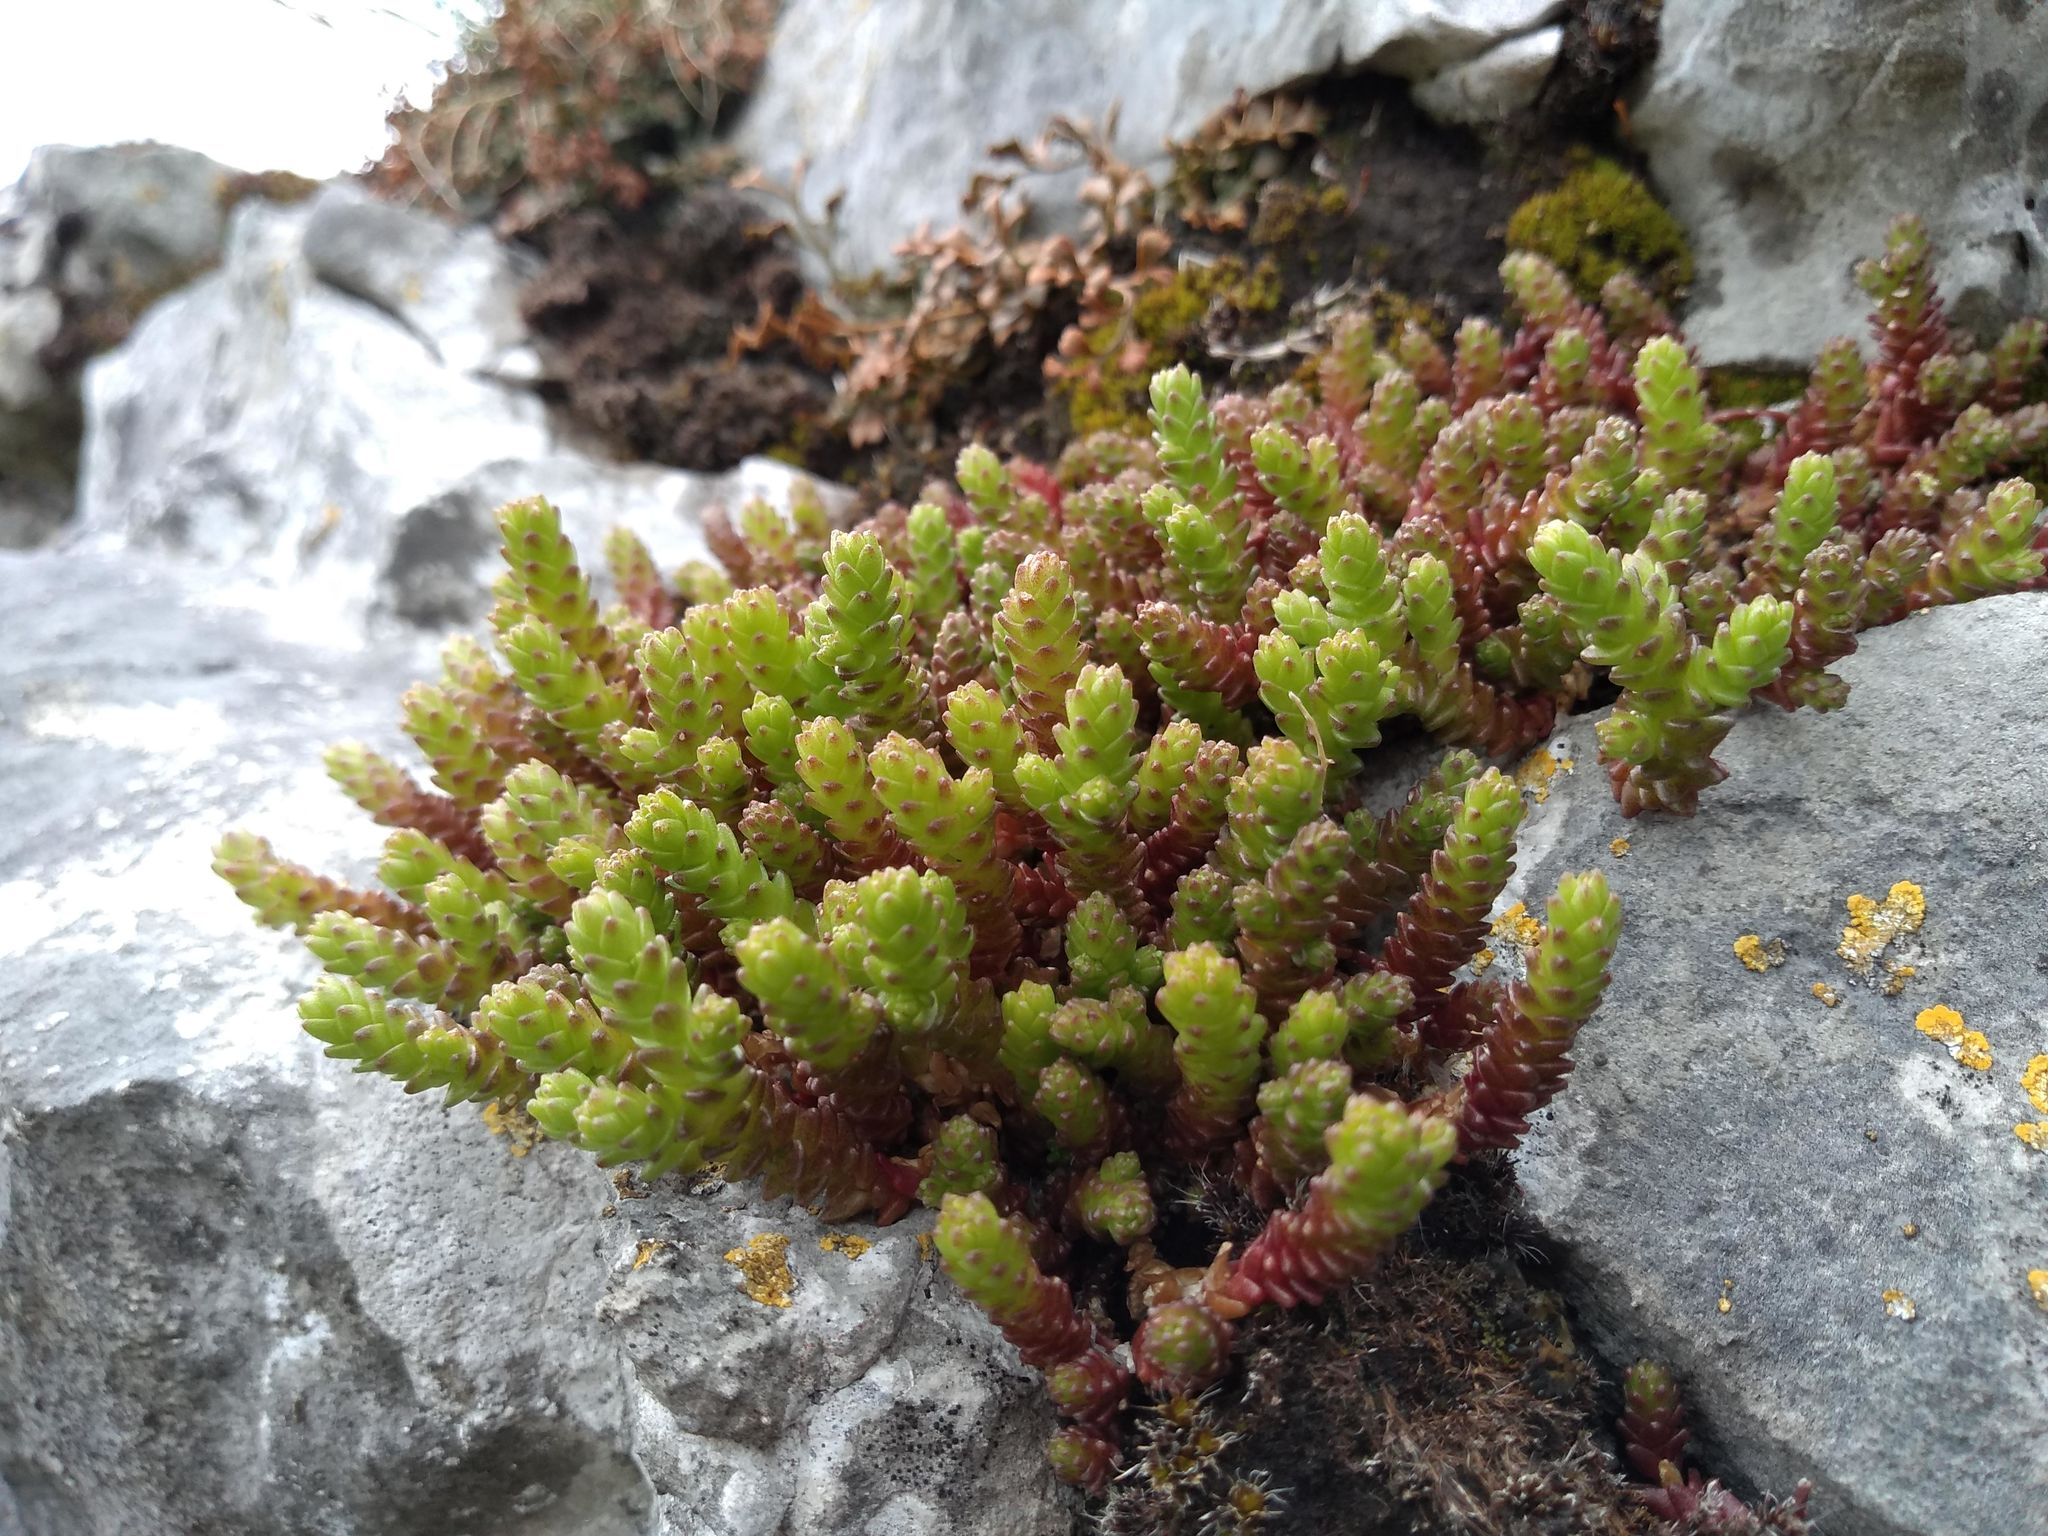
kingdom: Plantae
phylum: Tracheophyta
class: Magnoliopsida
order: Saxifragales
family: Crassulaceae
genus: Sedum
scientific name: Sedum acre
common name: Biting stonecrop
